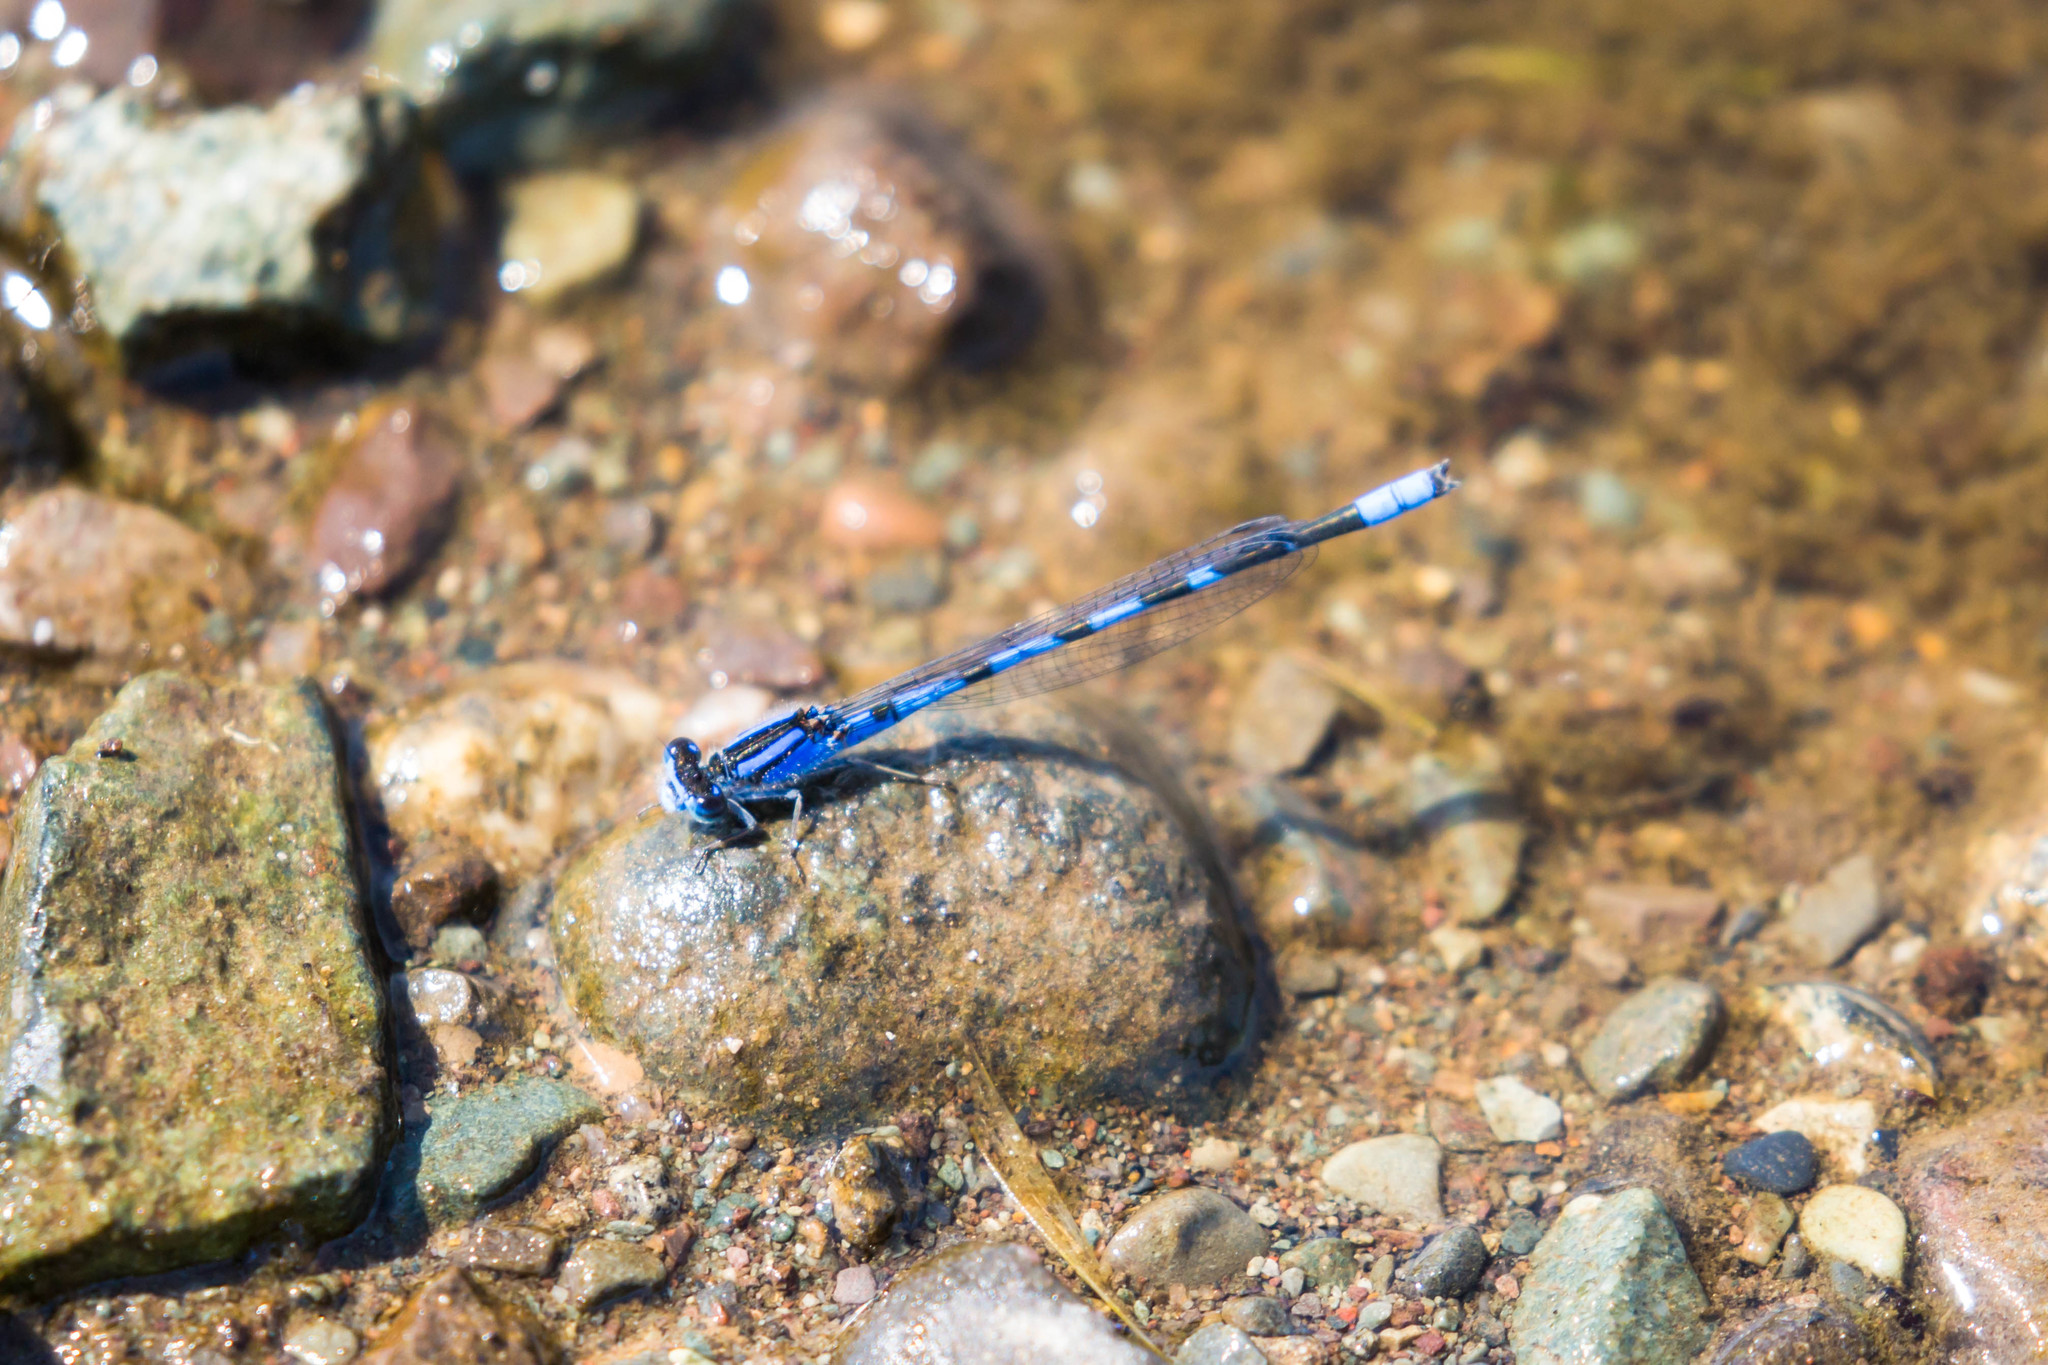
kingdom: Animalia
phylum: Arthropoda
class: Insecta
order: Odonata
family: Coenagrionidae
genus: Enallagma
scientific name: Enallagma civile
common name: Damselfly
